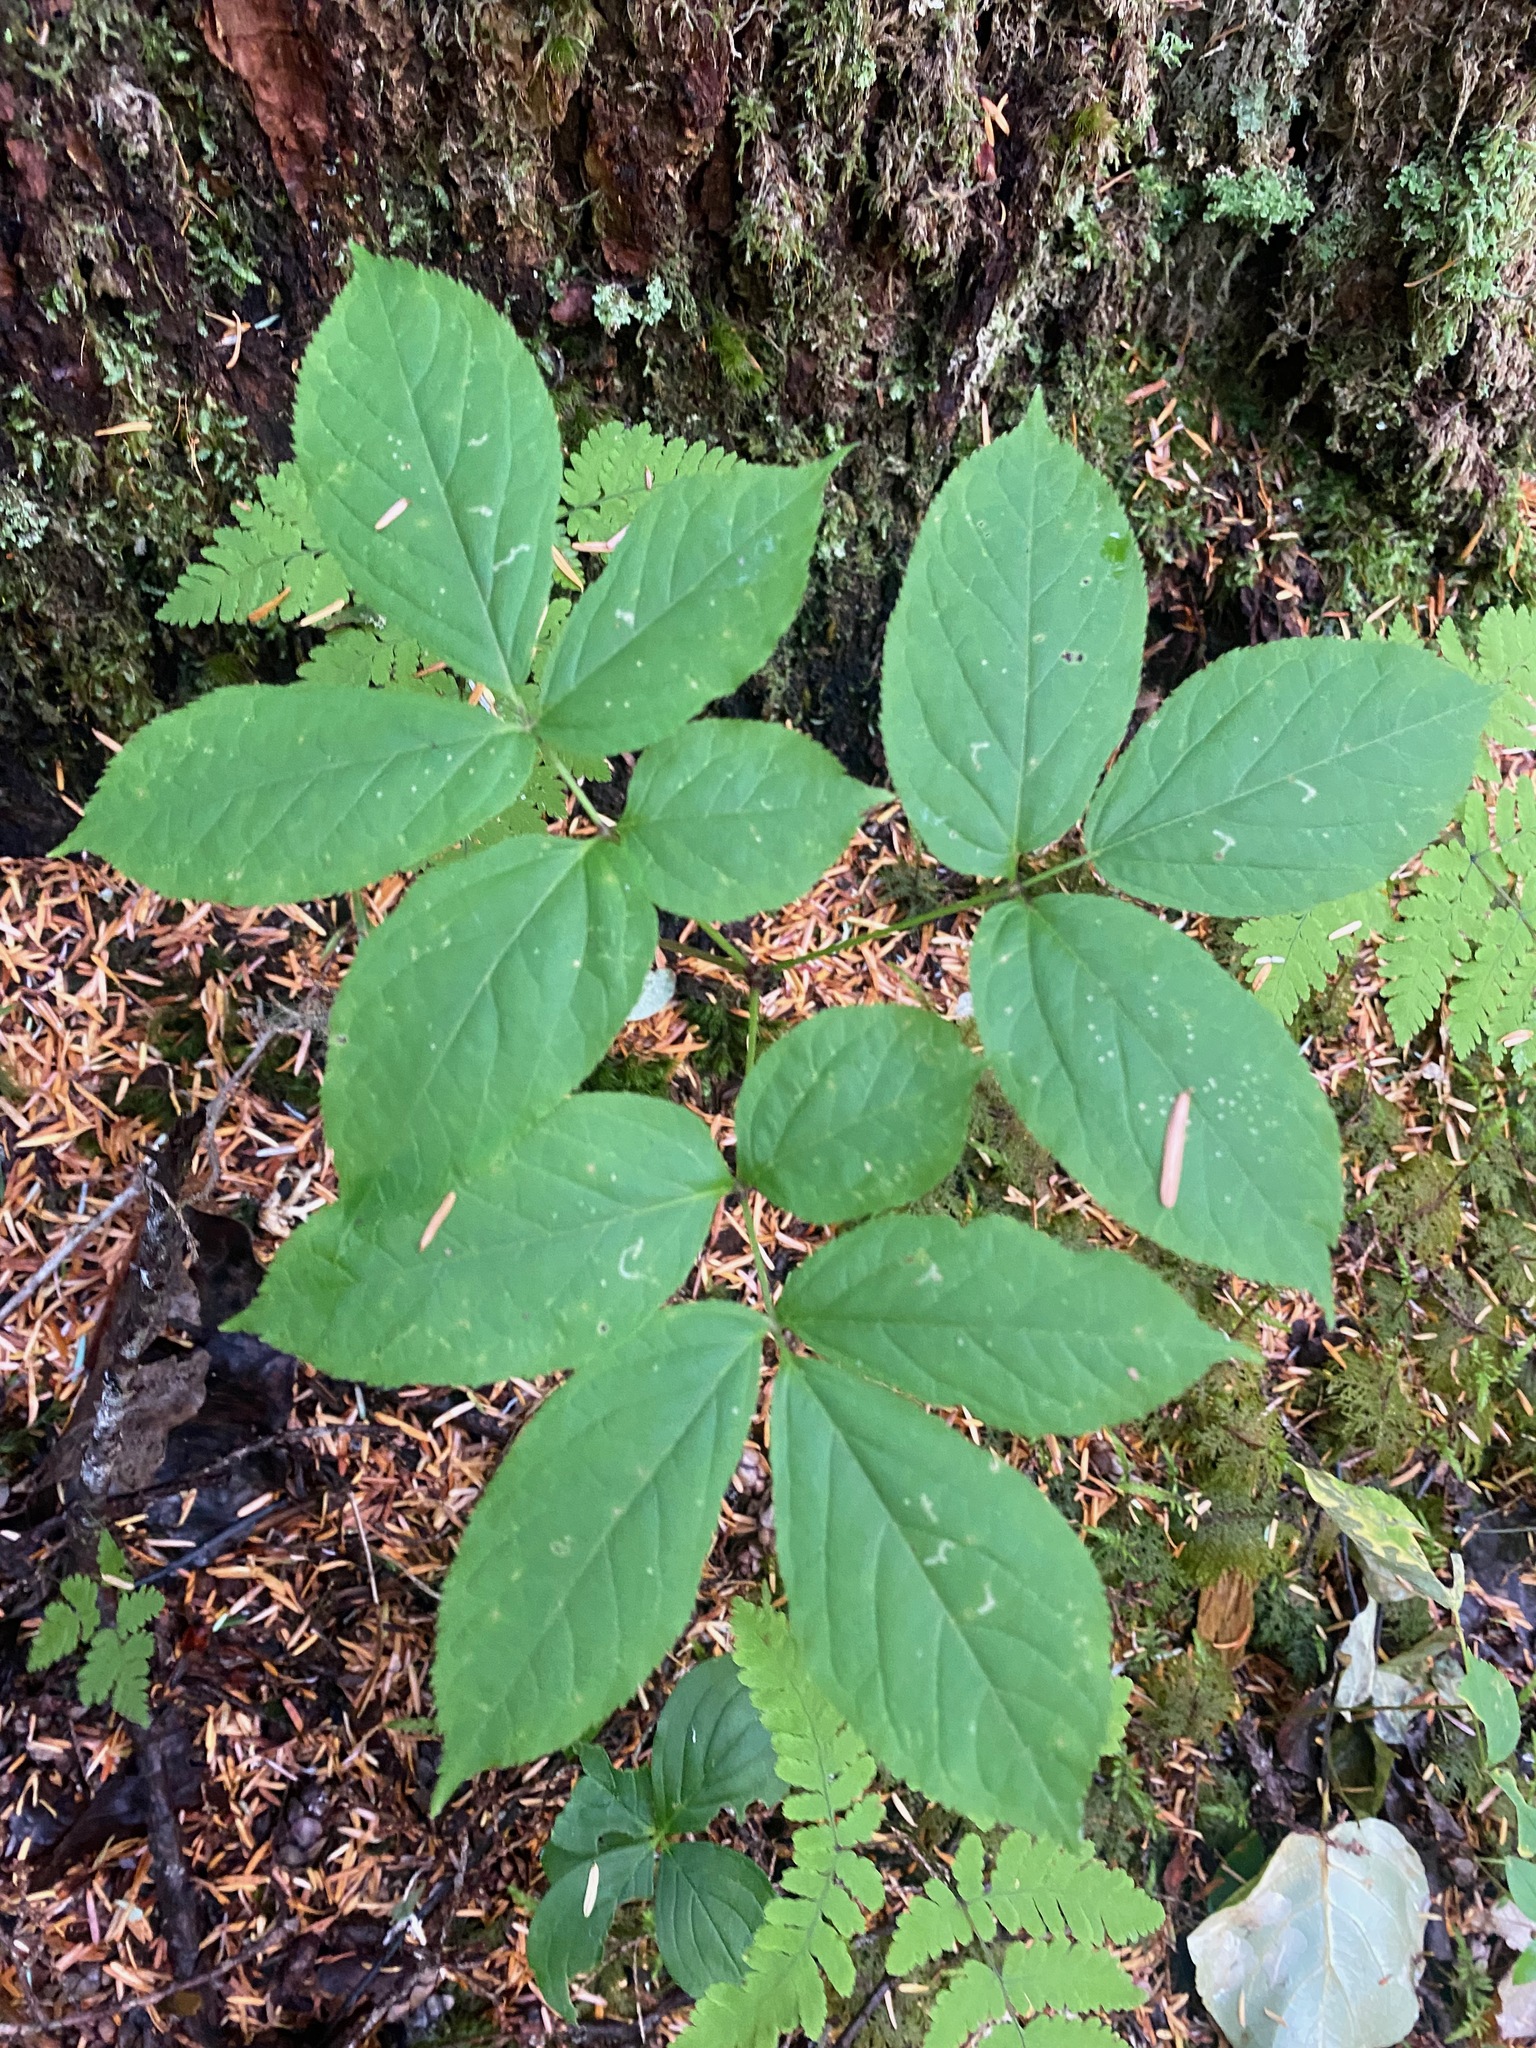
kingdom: Plantae
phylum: Tracheophyta
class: Magnoliopsida
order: Apiales
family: Araliaceae
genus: Aralia
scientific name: Aralia nudicaulis
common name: Wild sarsaparilla
